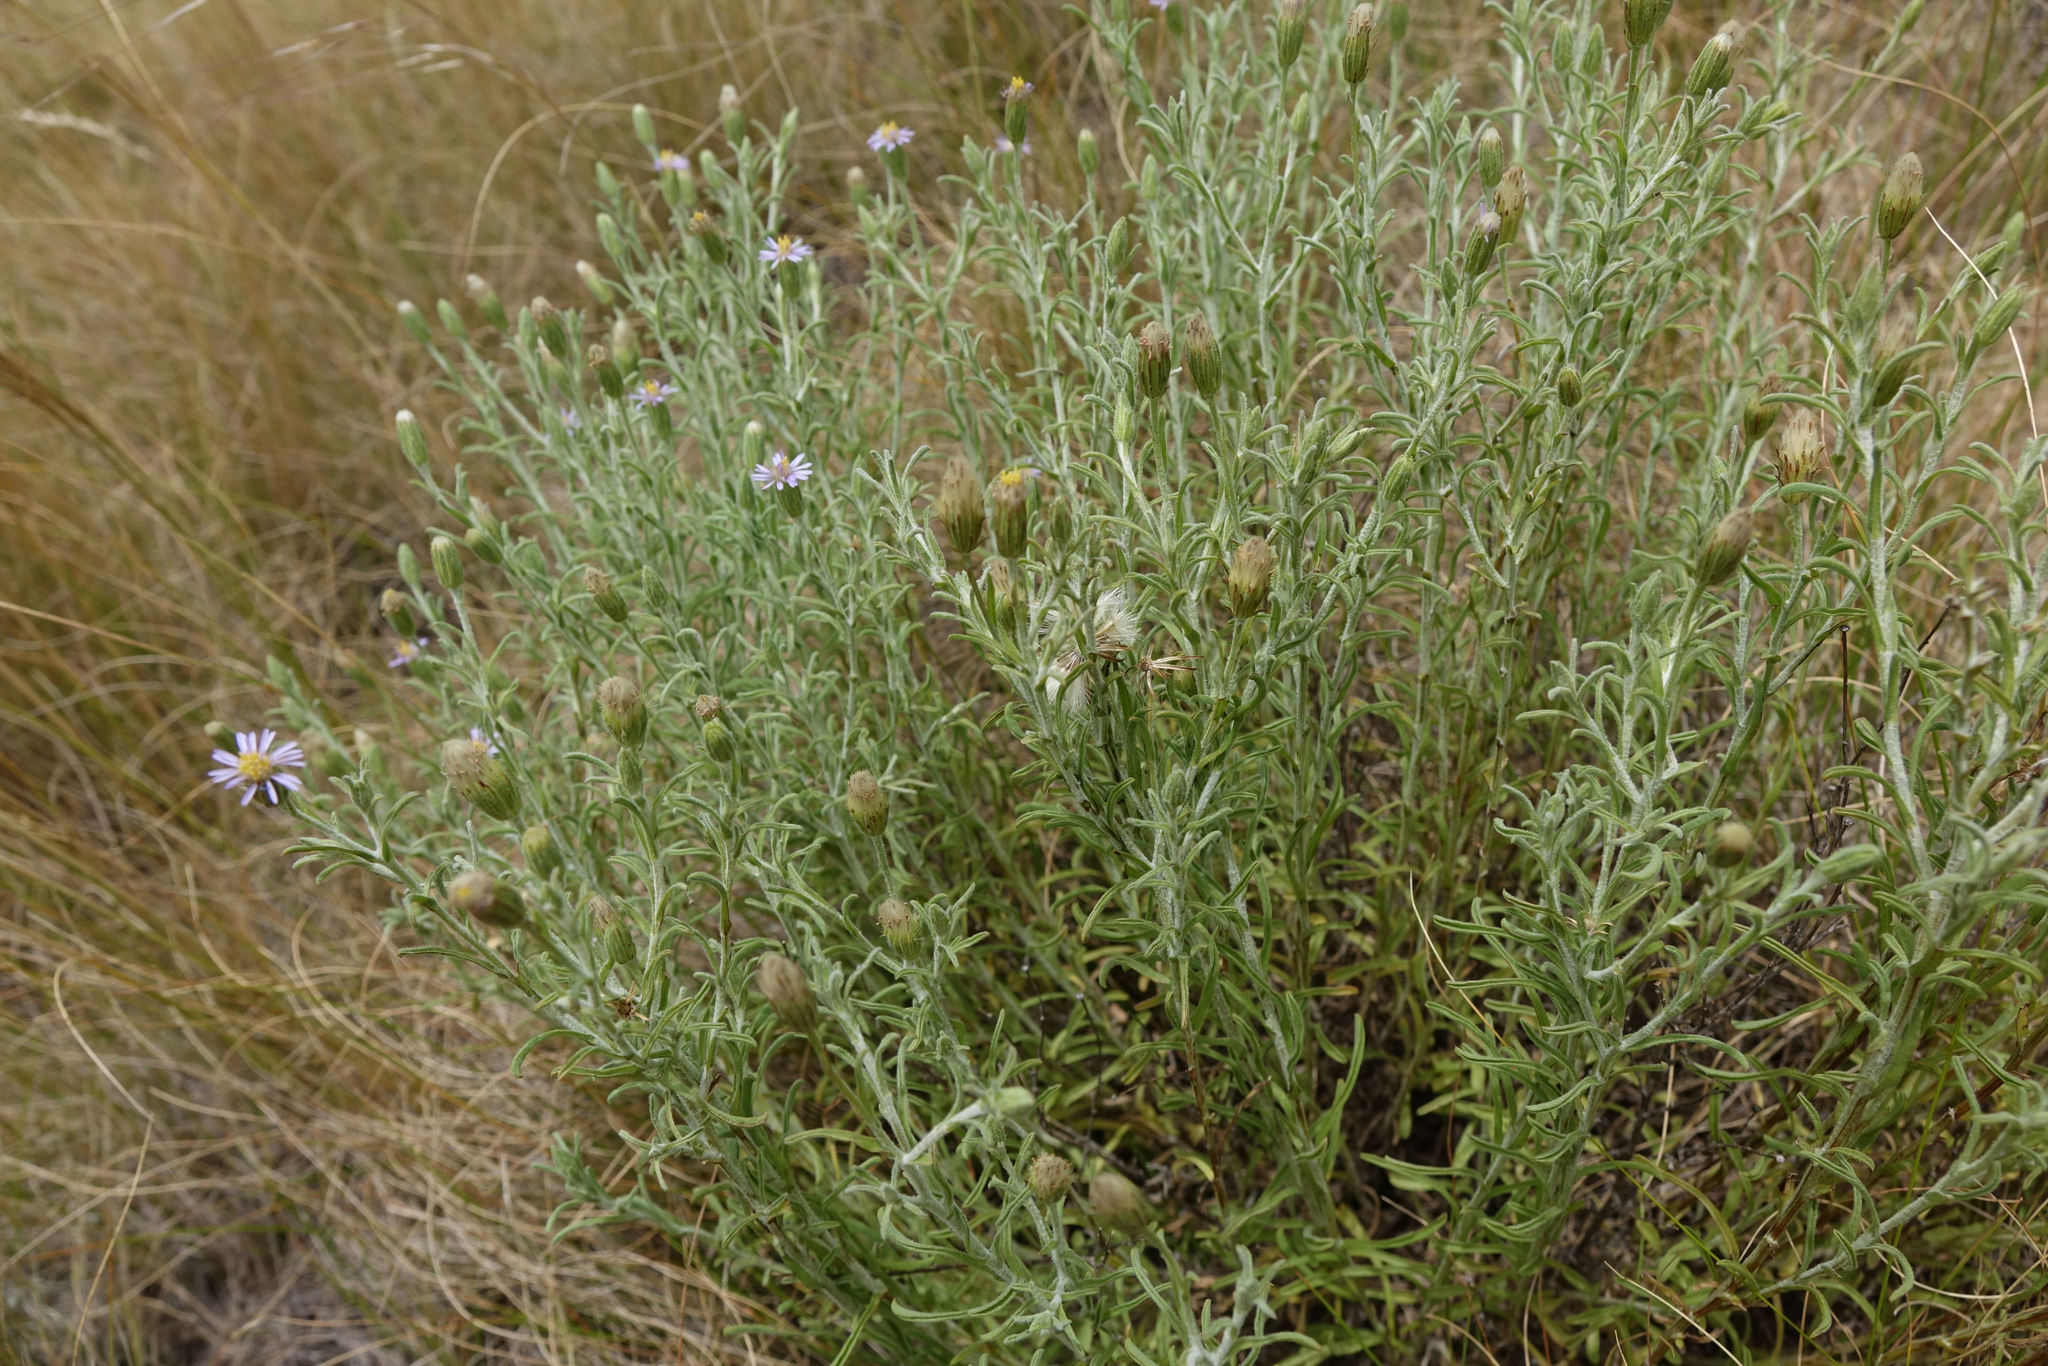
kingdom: Plantae
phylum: Tracheophyta
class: Magnoliopsida
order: Asterales
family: Asteraceae
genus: Vittadinia
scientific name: Vittadinia gracilis
